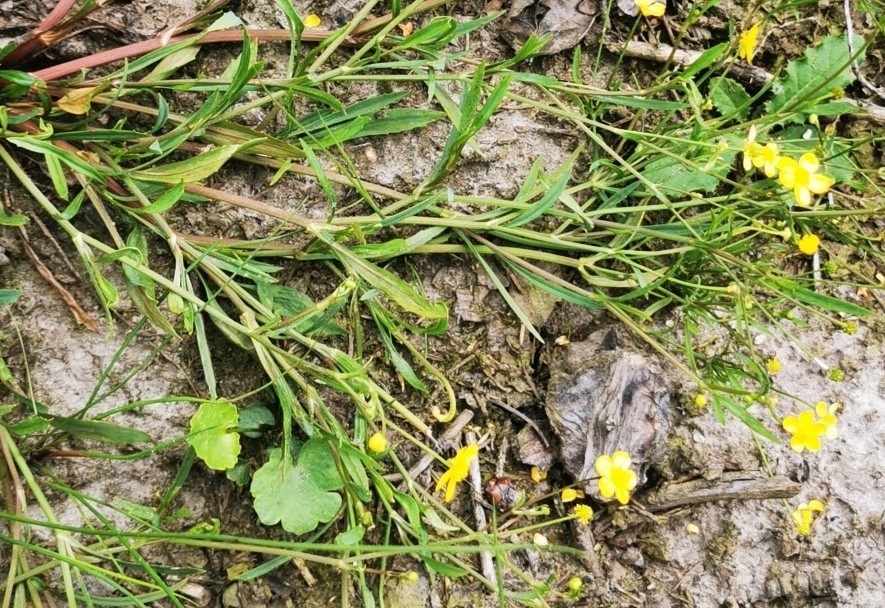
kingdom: Plantae
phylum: Tracheophyta
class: Magnoliopsida
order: Ranunculales
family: Ranunculaceae
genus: Ranunculus
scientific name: Ranunculus flammula
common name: Lesser spearwort
